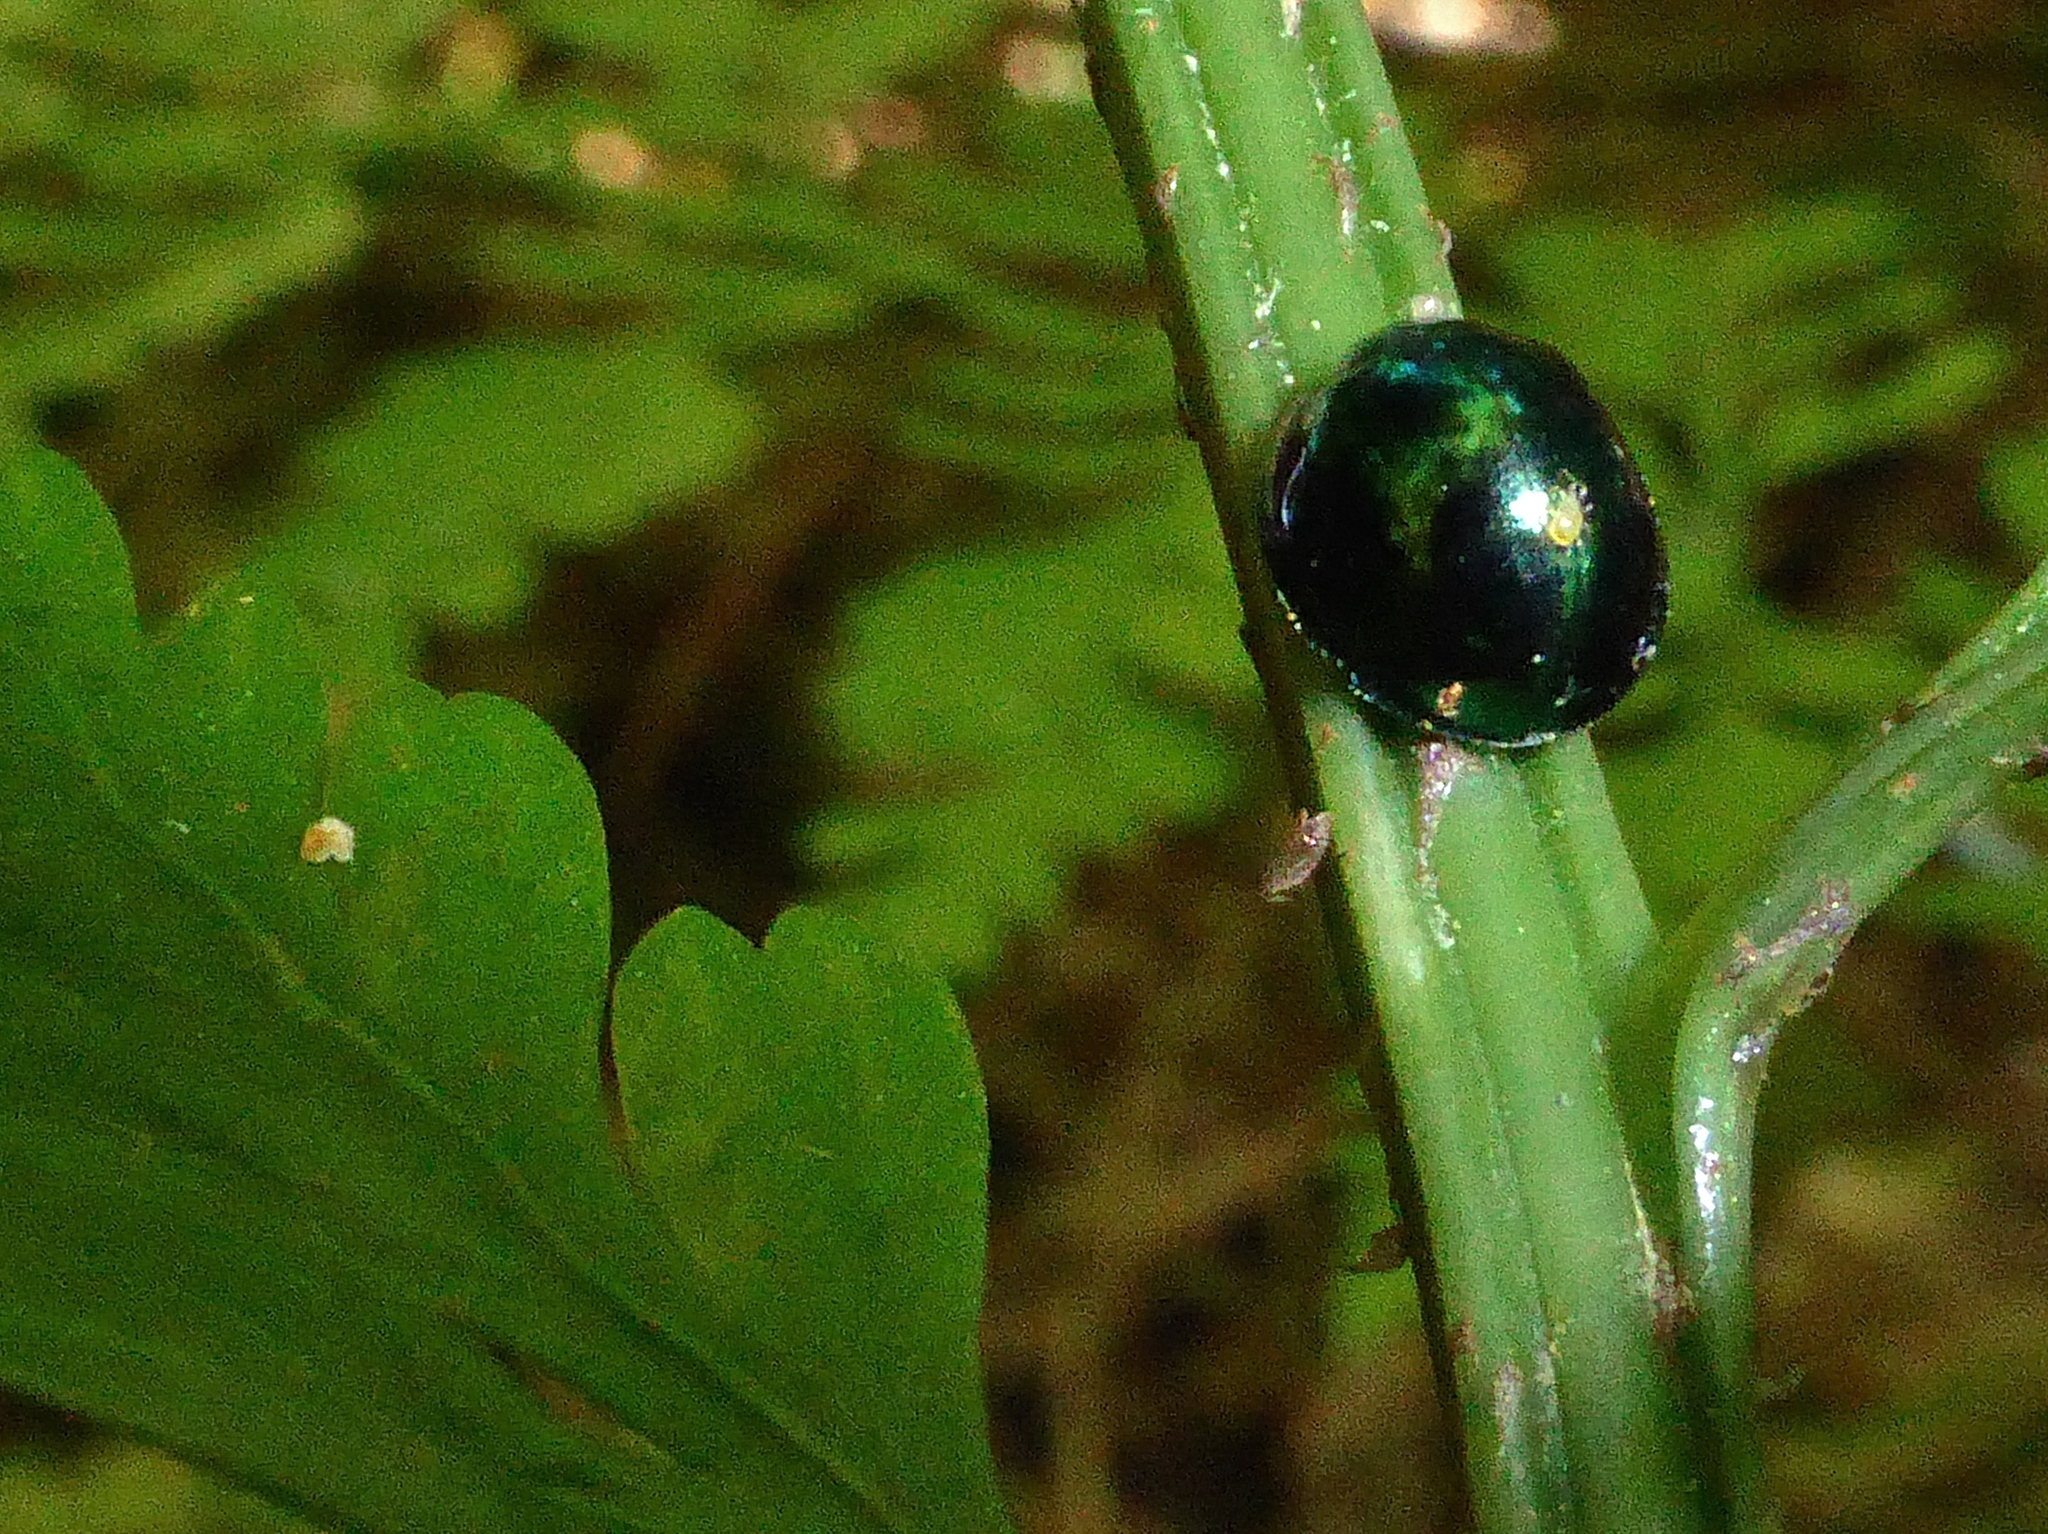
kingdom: Animalia
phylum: Arthropoda
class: Insecta
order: Coleoptera
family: Coccinellidae
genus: Halmus
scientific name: Halmus chalybeus
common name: Steel blue ladybird beetle
